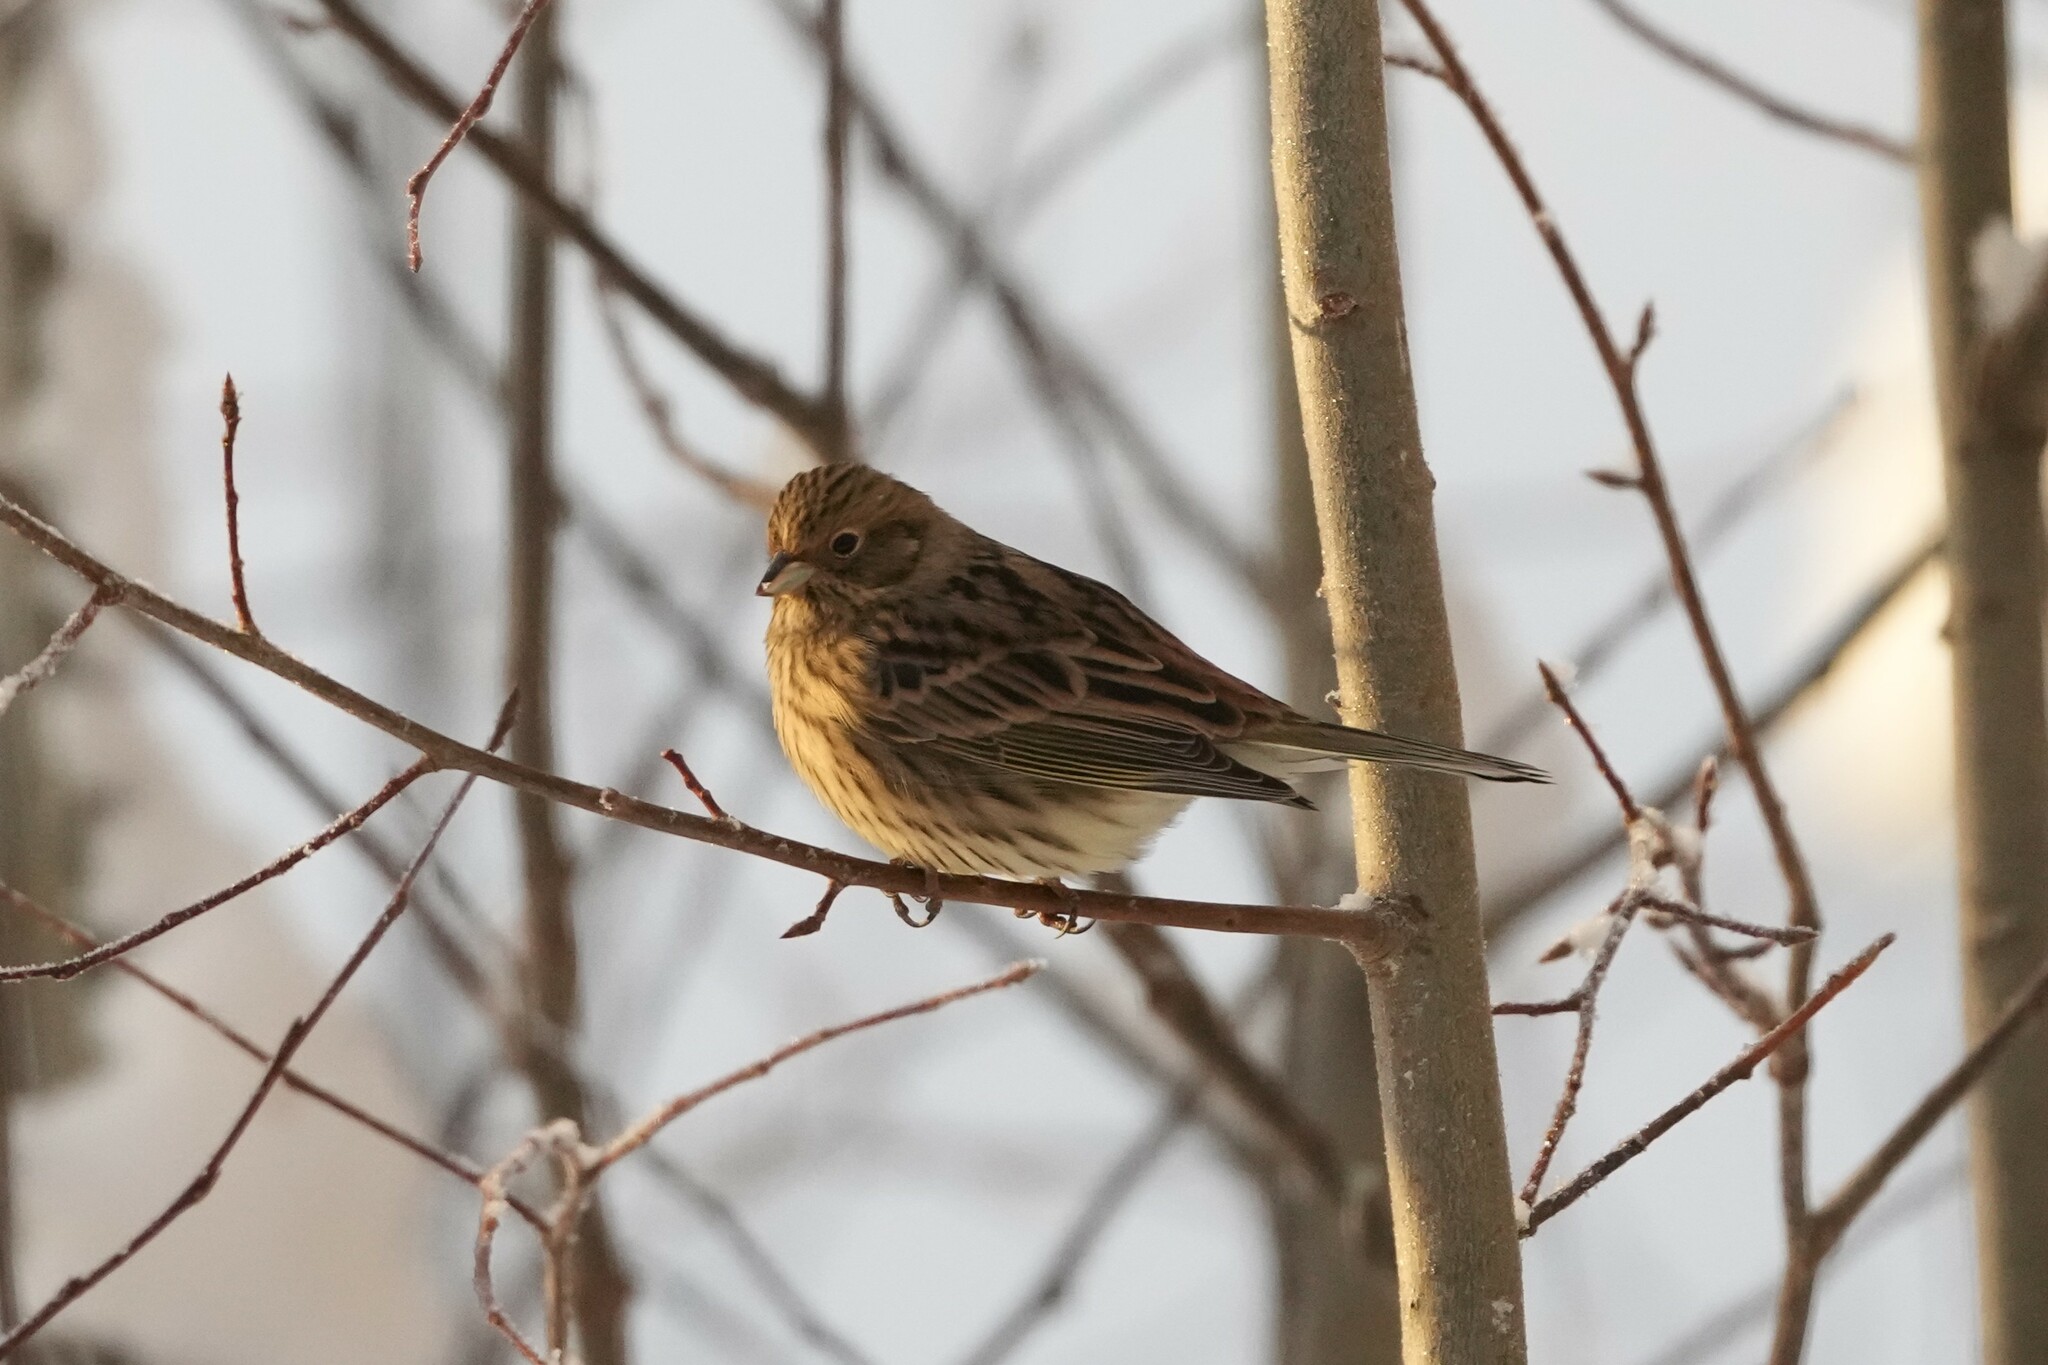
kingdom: Animalia
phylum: Chordata
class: Aves
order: Passeriformes
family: Emberizidae
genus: Emberiza
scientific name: Emberiza citrinella
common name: Yellowhammer
